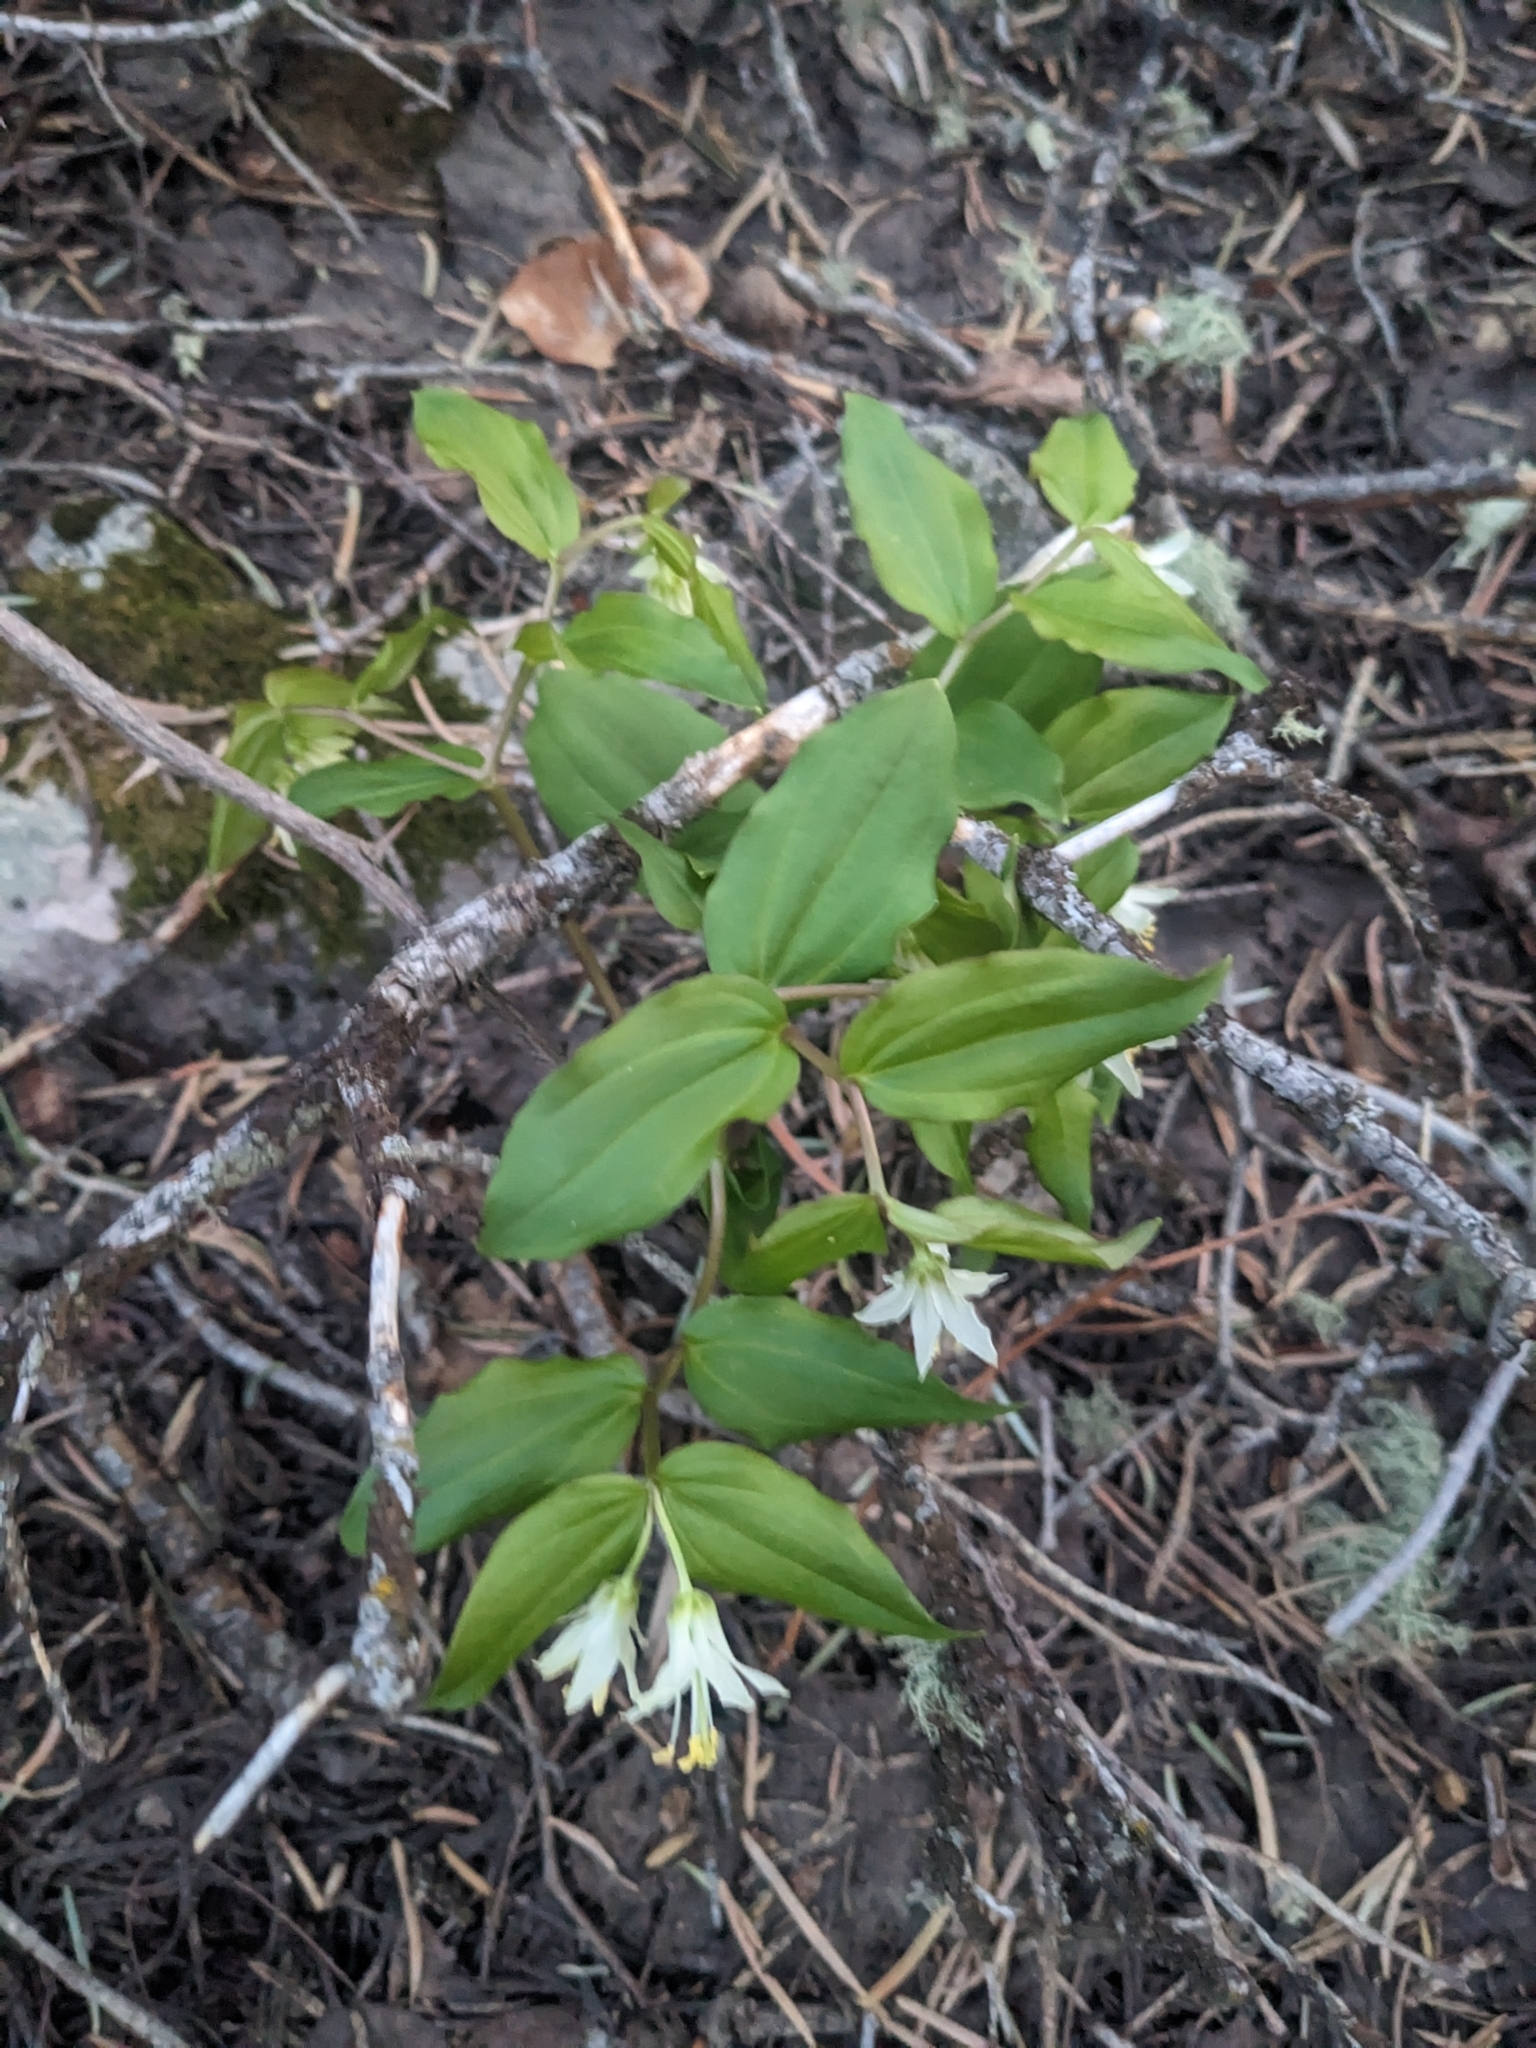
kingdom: Plantae
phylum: Tracheophyta
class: Liliopsida
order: Liliales
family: Liliaceae
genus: Prosartes
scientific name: Prosartes trachycarpa
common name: Rough-fruit fairy-bells
